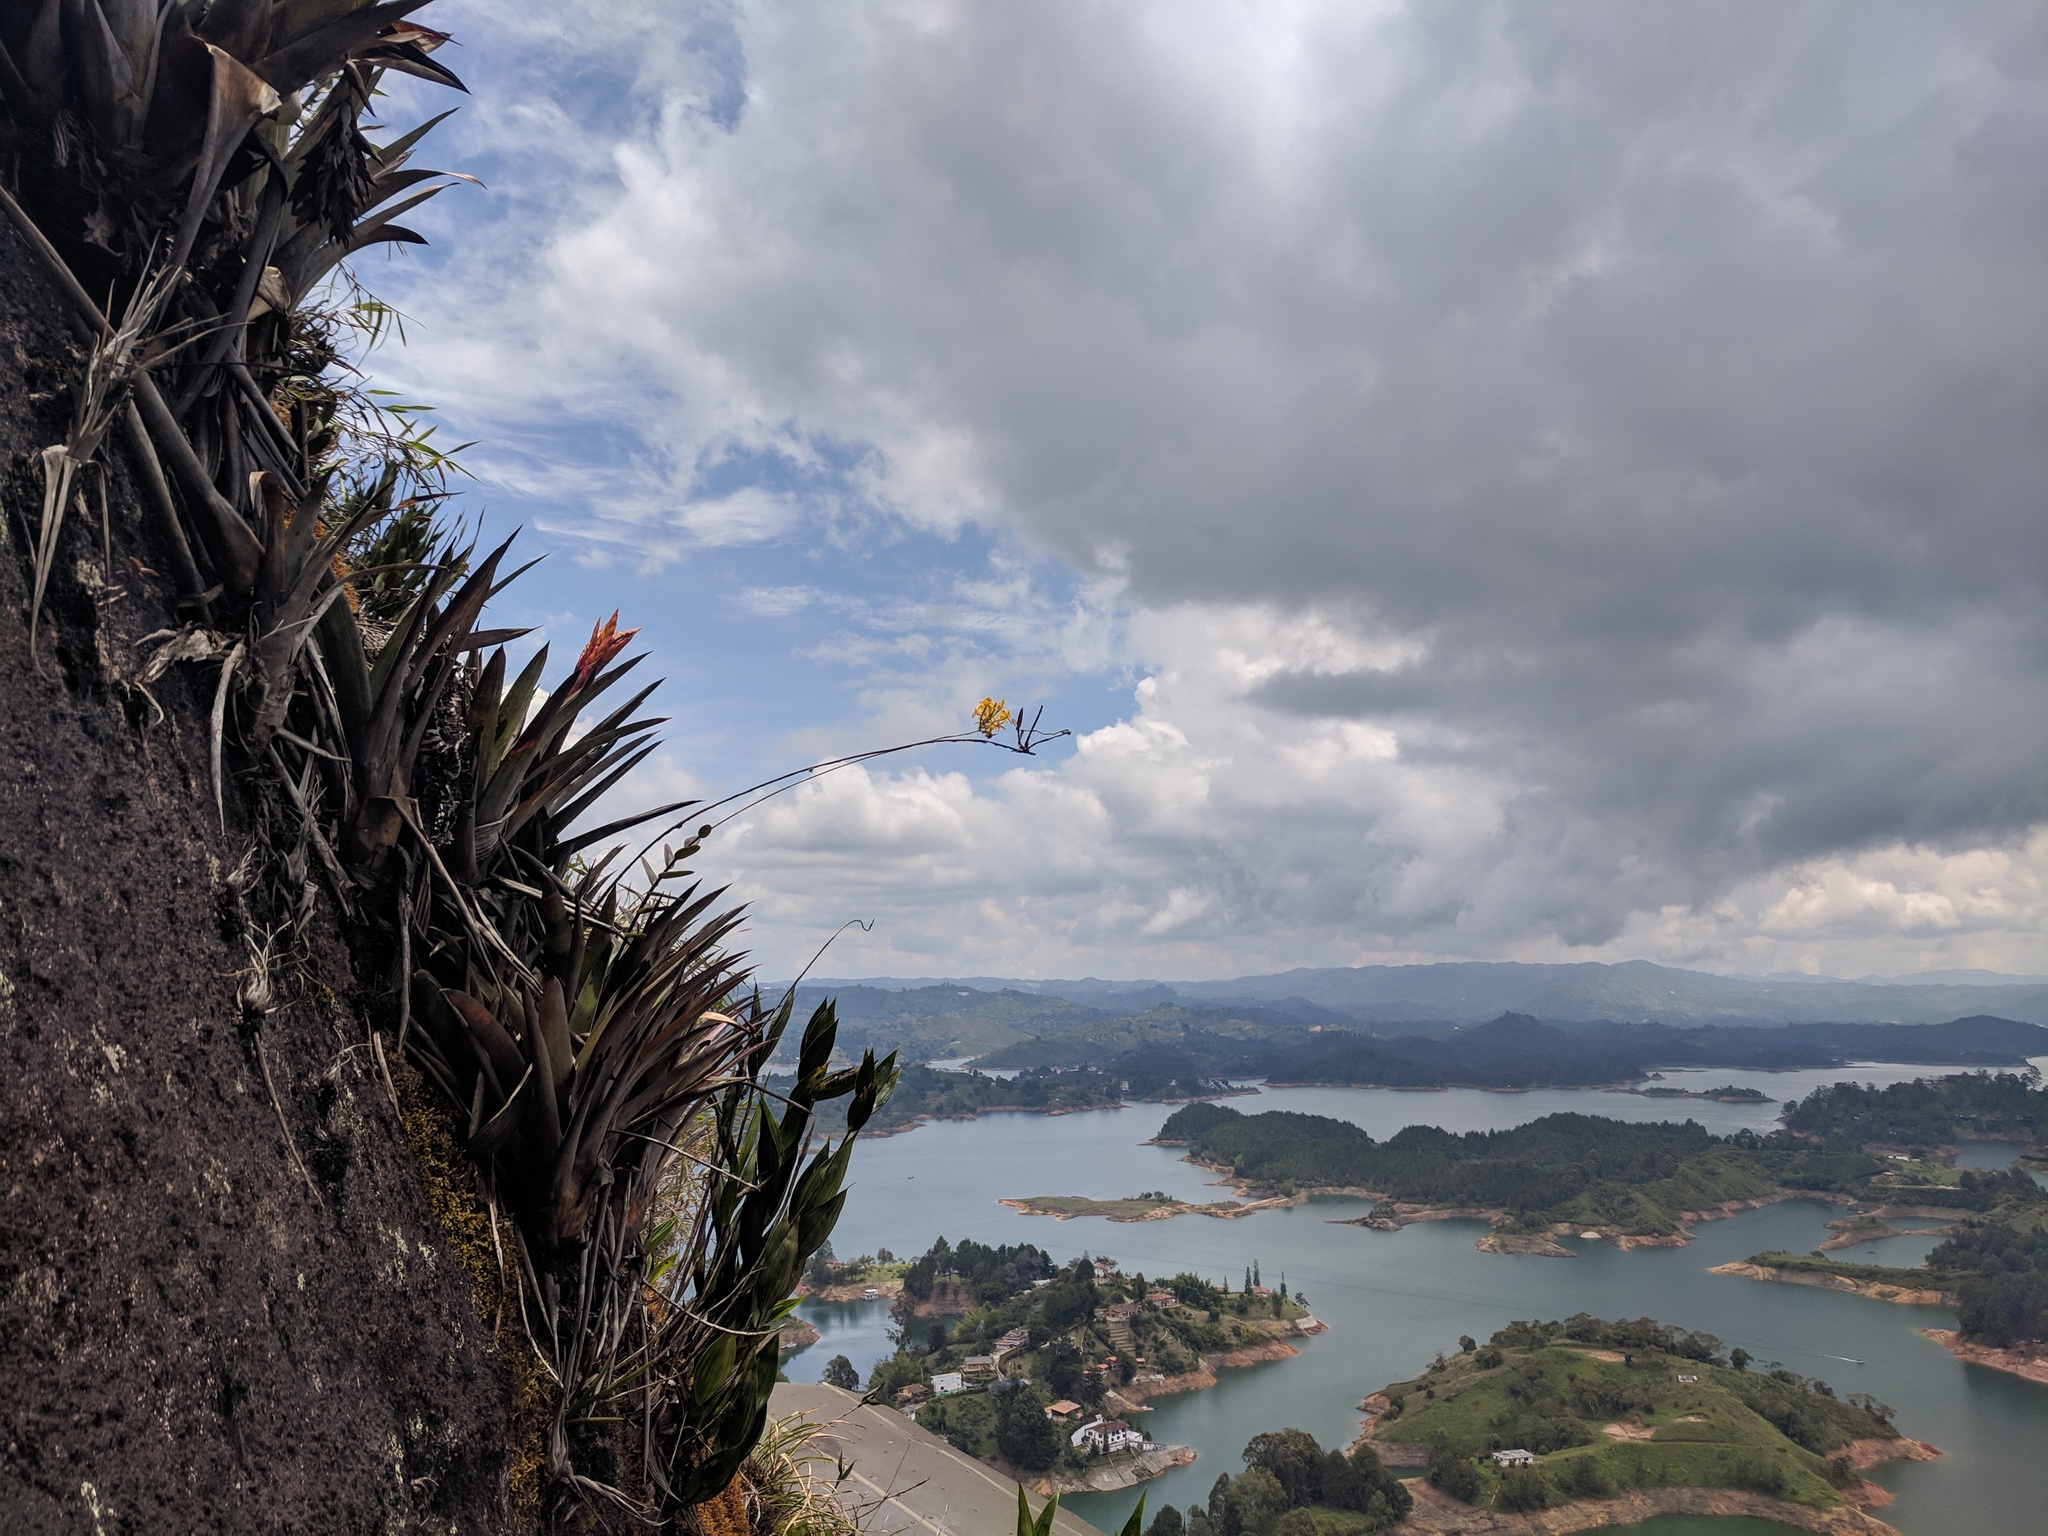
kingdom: Plantae
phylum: Tracheophyta
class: Liliopsida
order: Asparagales
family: Orchidaceae
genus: Epidendrum
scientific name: Epidendrum melinanthum
